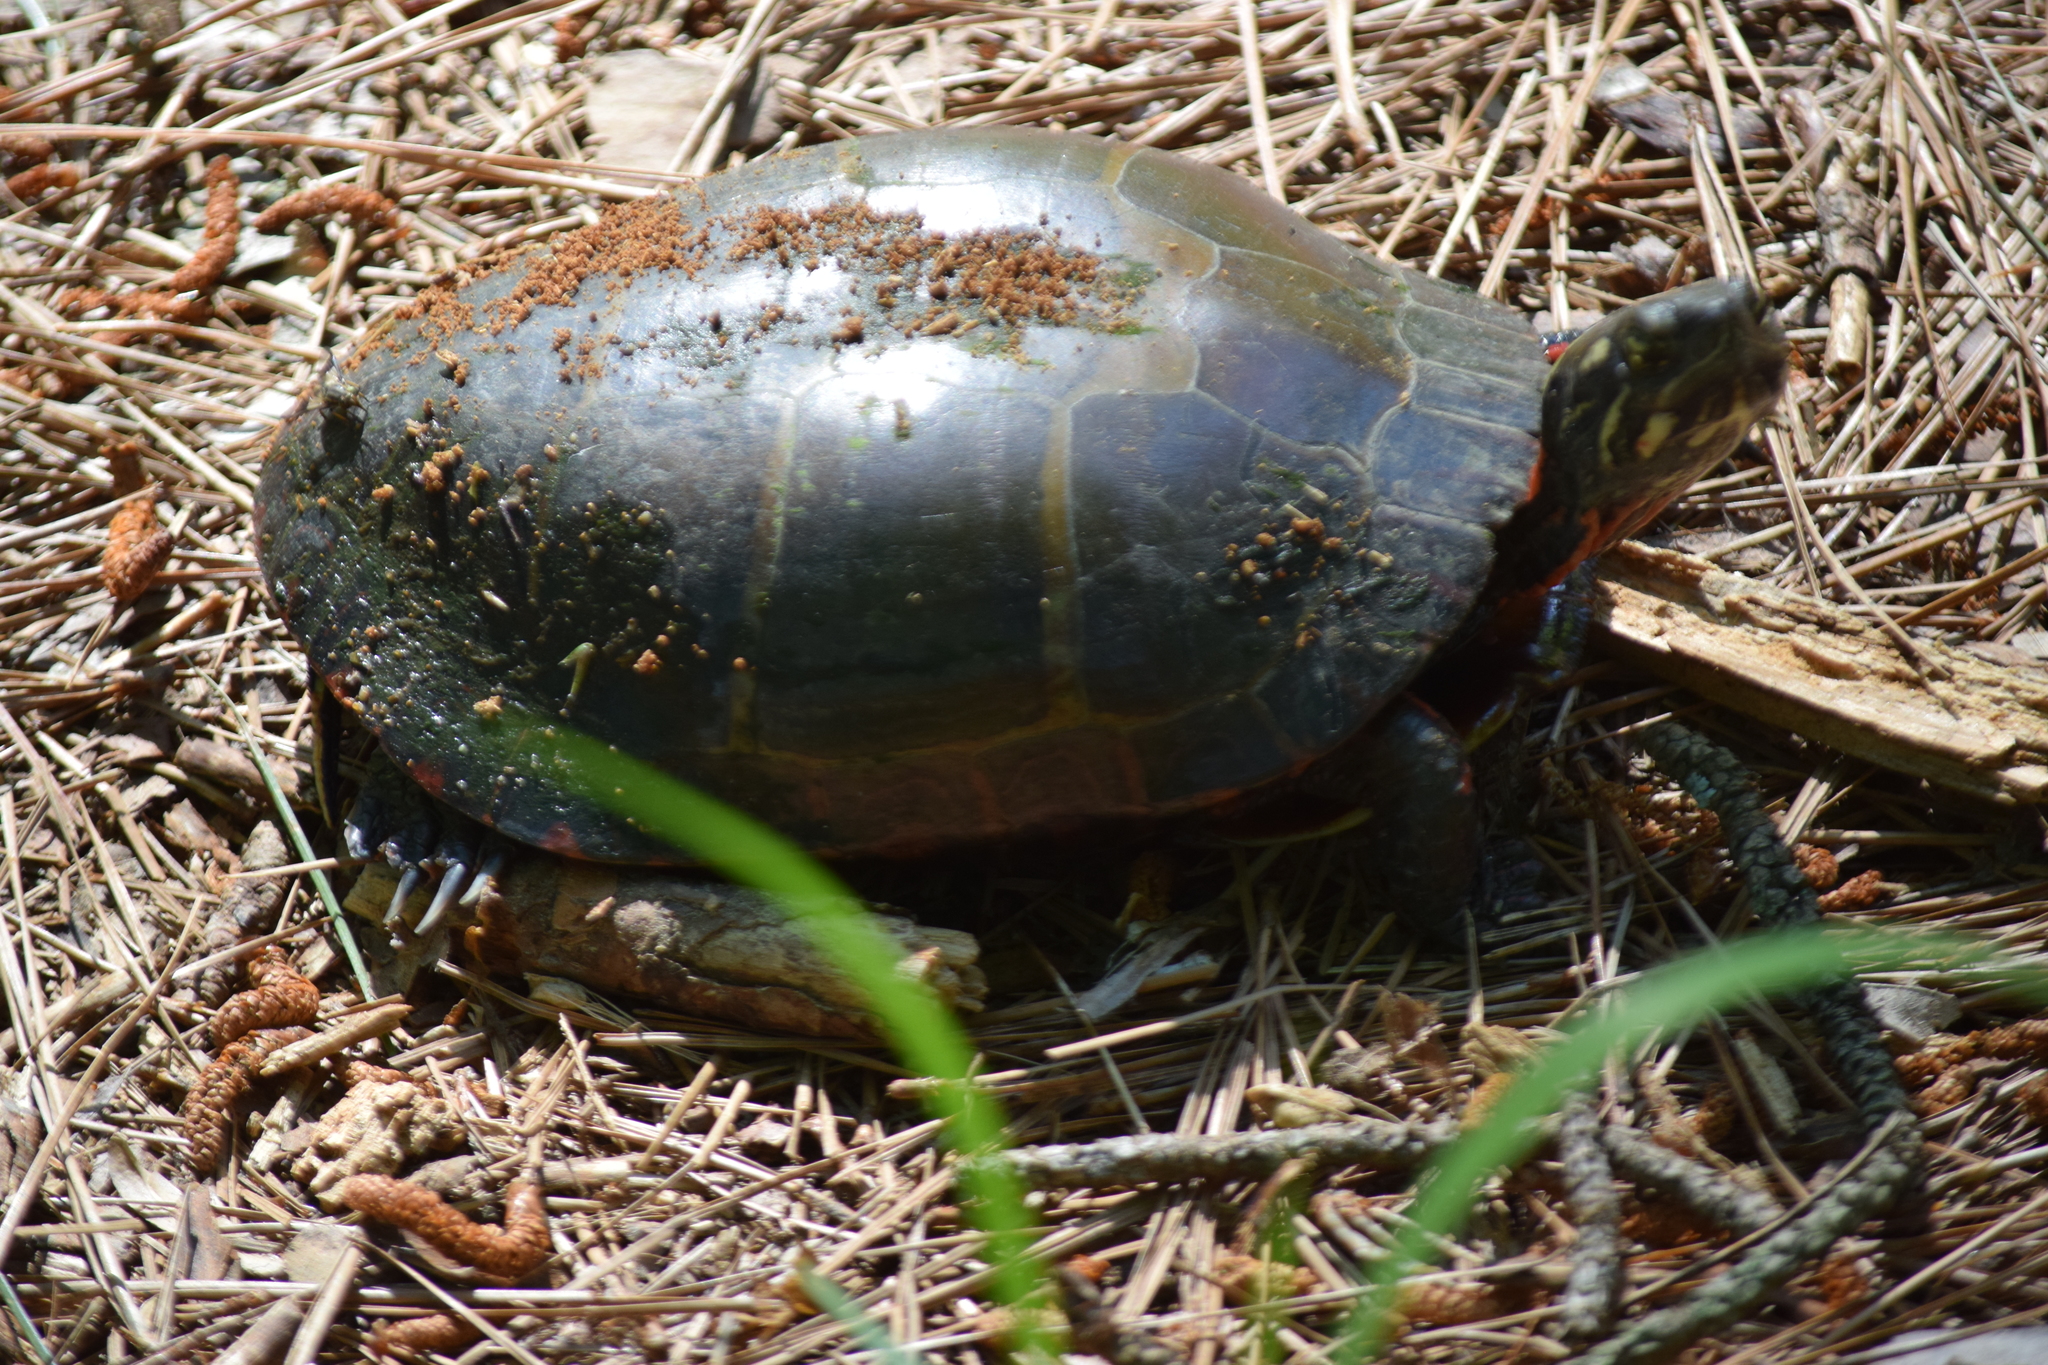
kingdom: Animalia
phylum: Chordata
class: Testudines
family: Emydidae
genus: Chrysemys
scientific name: Chrysemys picta
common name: Painted turtle
